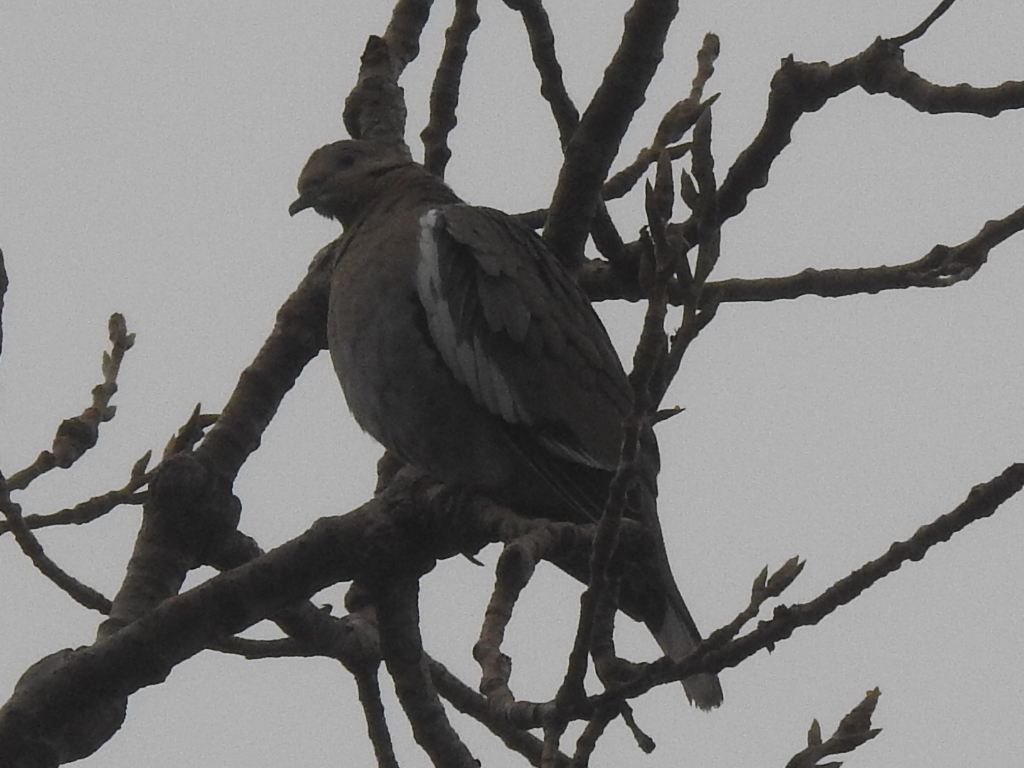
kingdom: Animalia
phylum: Chordata
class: Aves
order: Columbiformes
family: Columbidae
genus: Zenaida
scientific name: Zenaida asiatica
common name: White-winged dove
